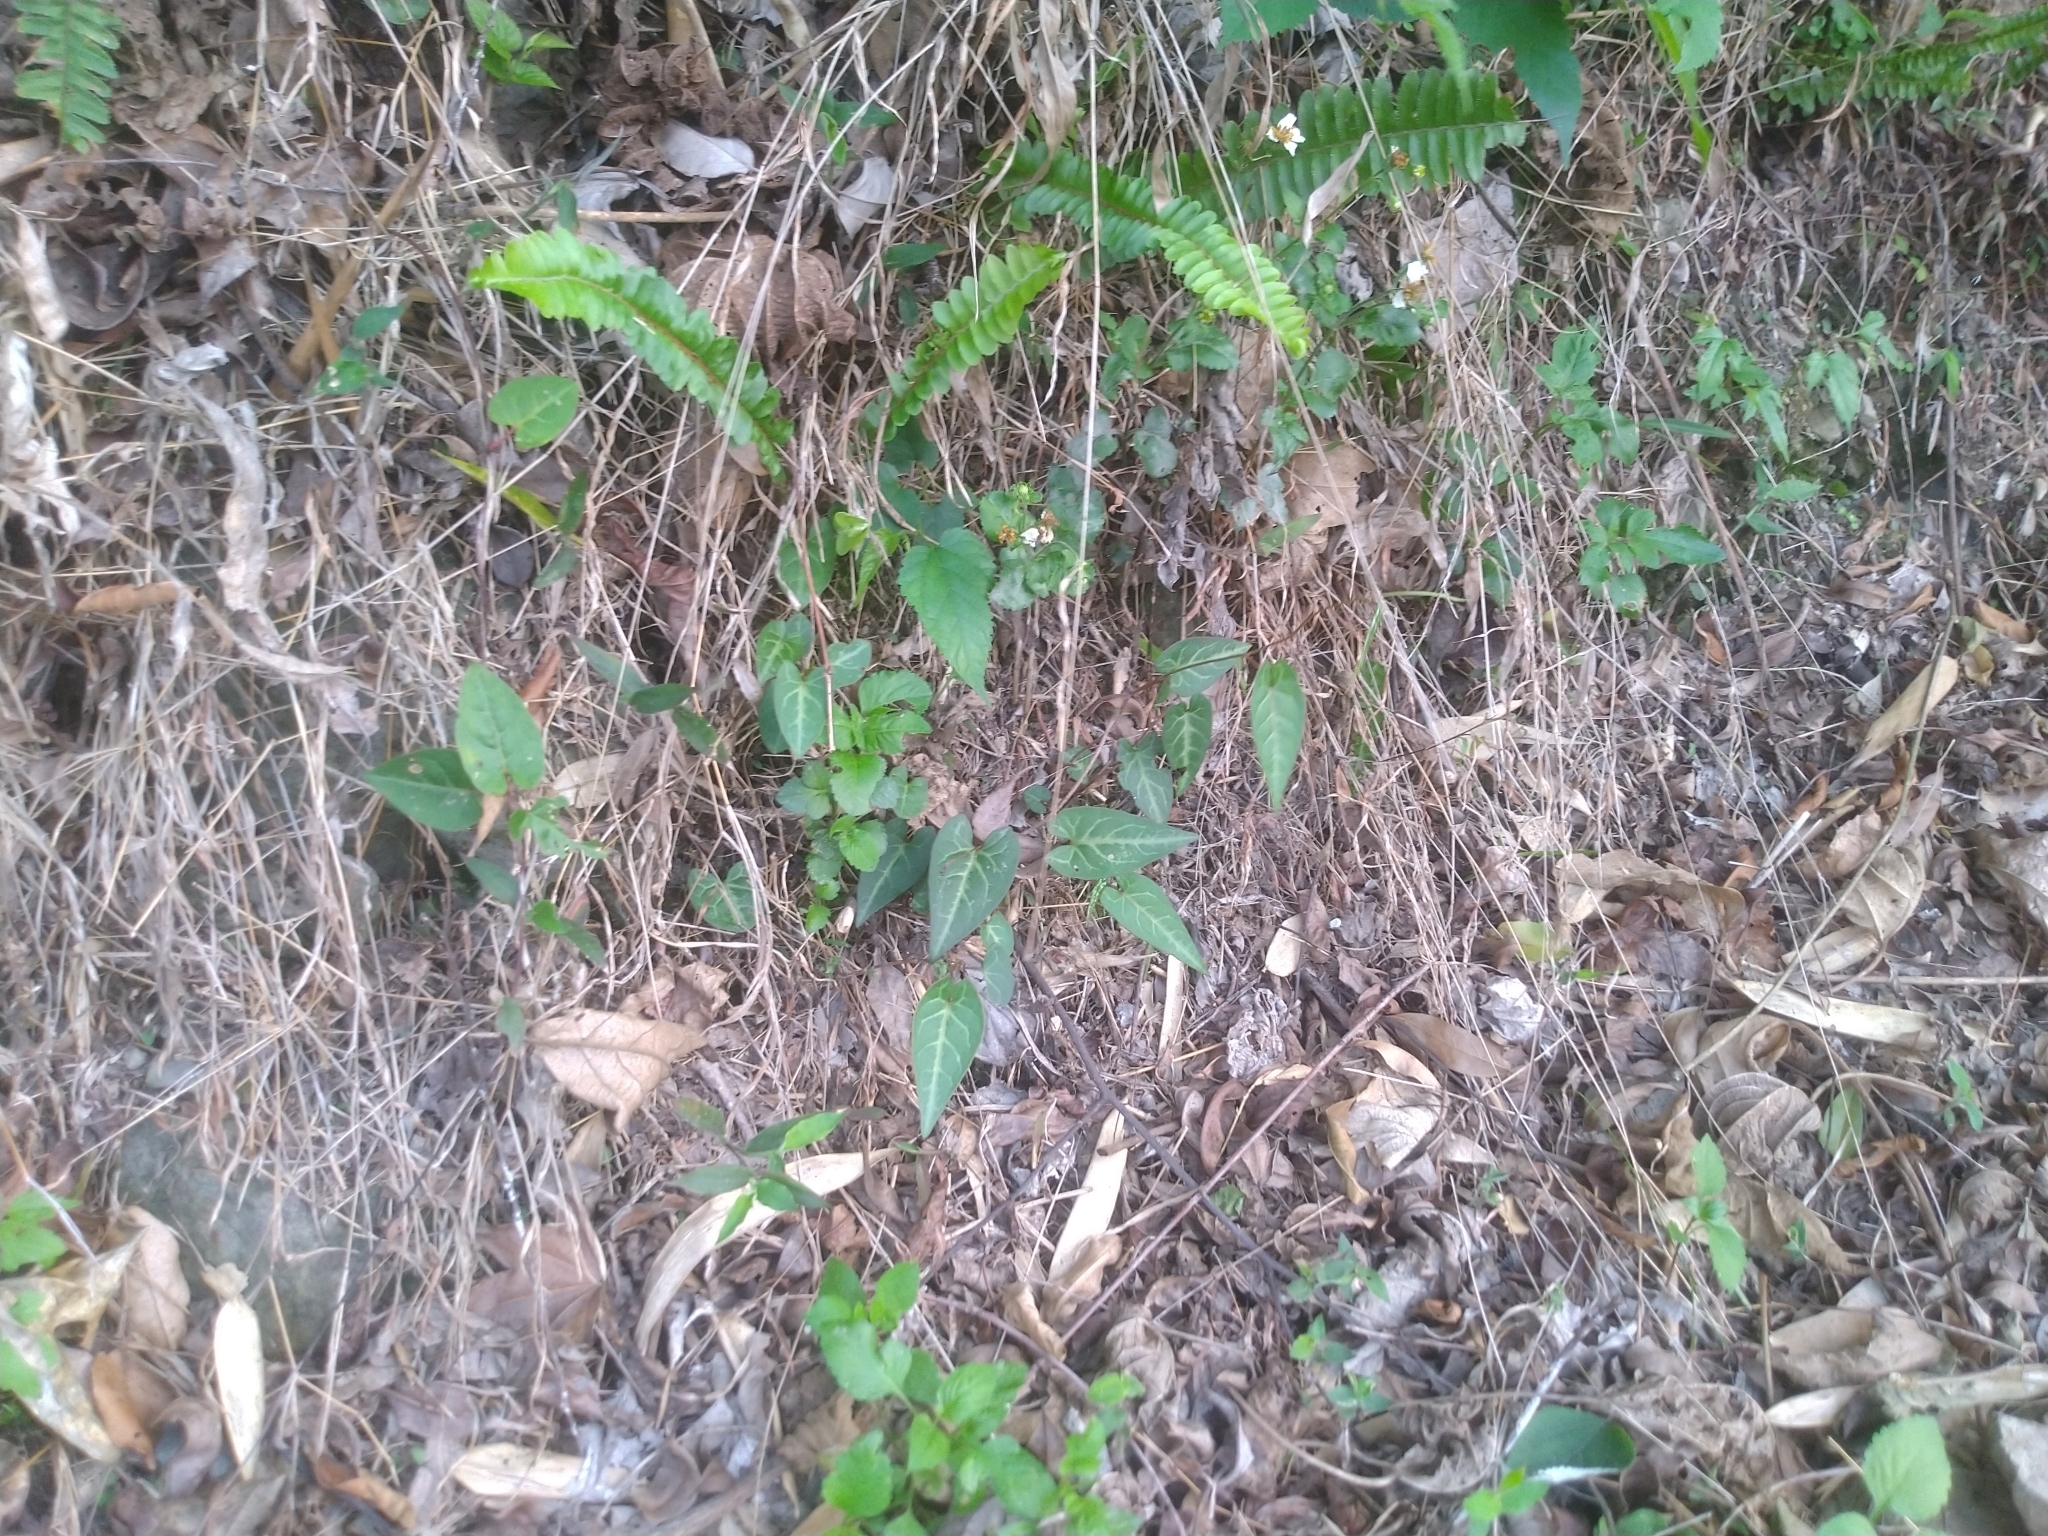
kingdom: Plantae
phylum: Tracheophyta
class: Magnoliopsida
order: Caryophyllales
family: Polygonaceae
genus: Reynoutria
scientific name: Reynoutria multiflora
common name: Chinese fleeceflower
